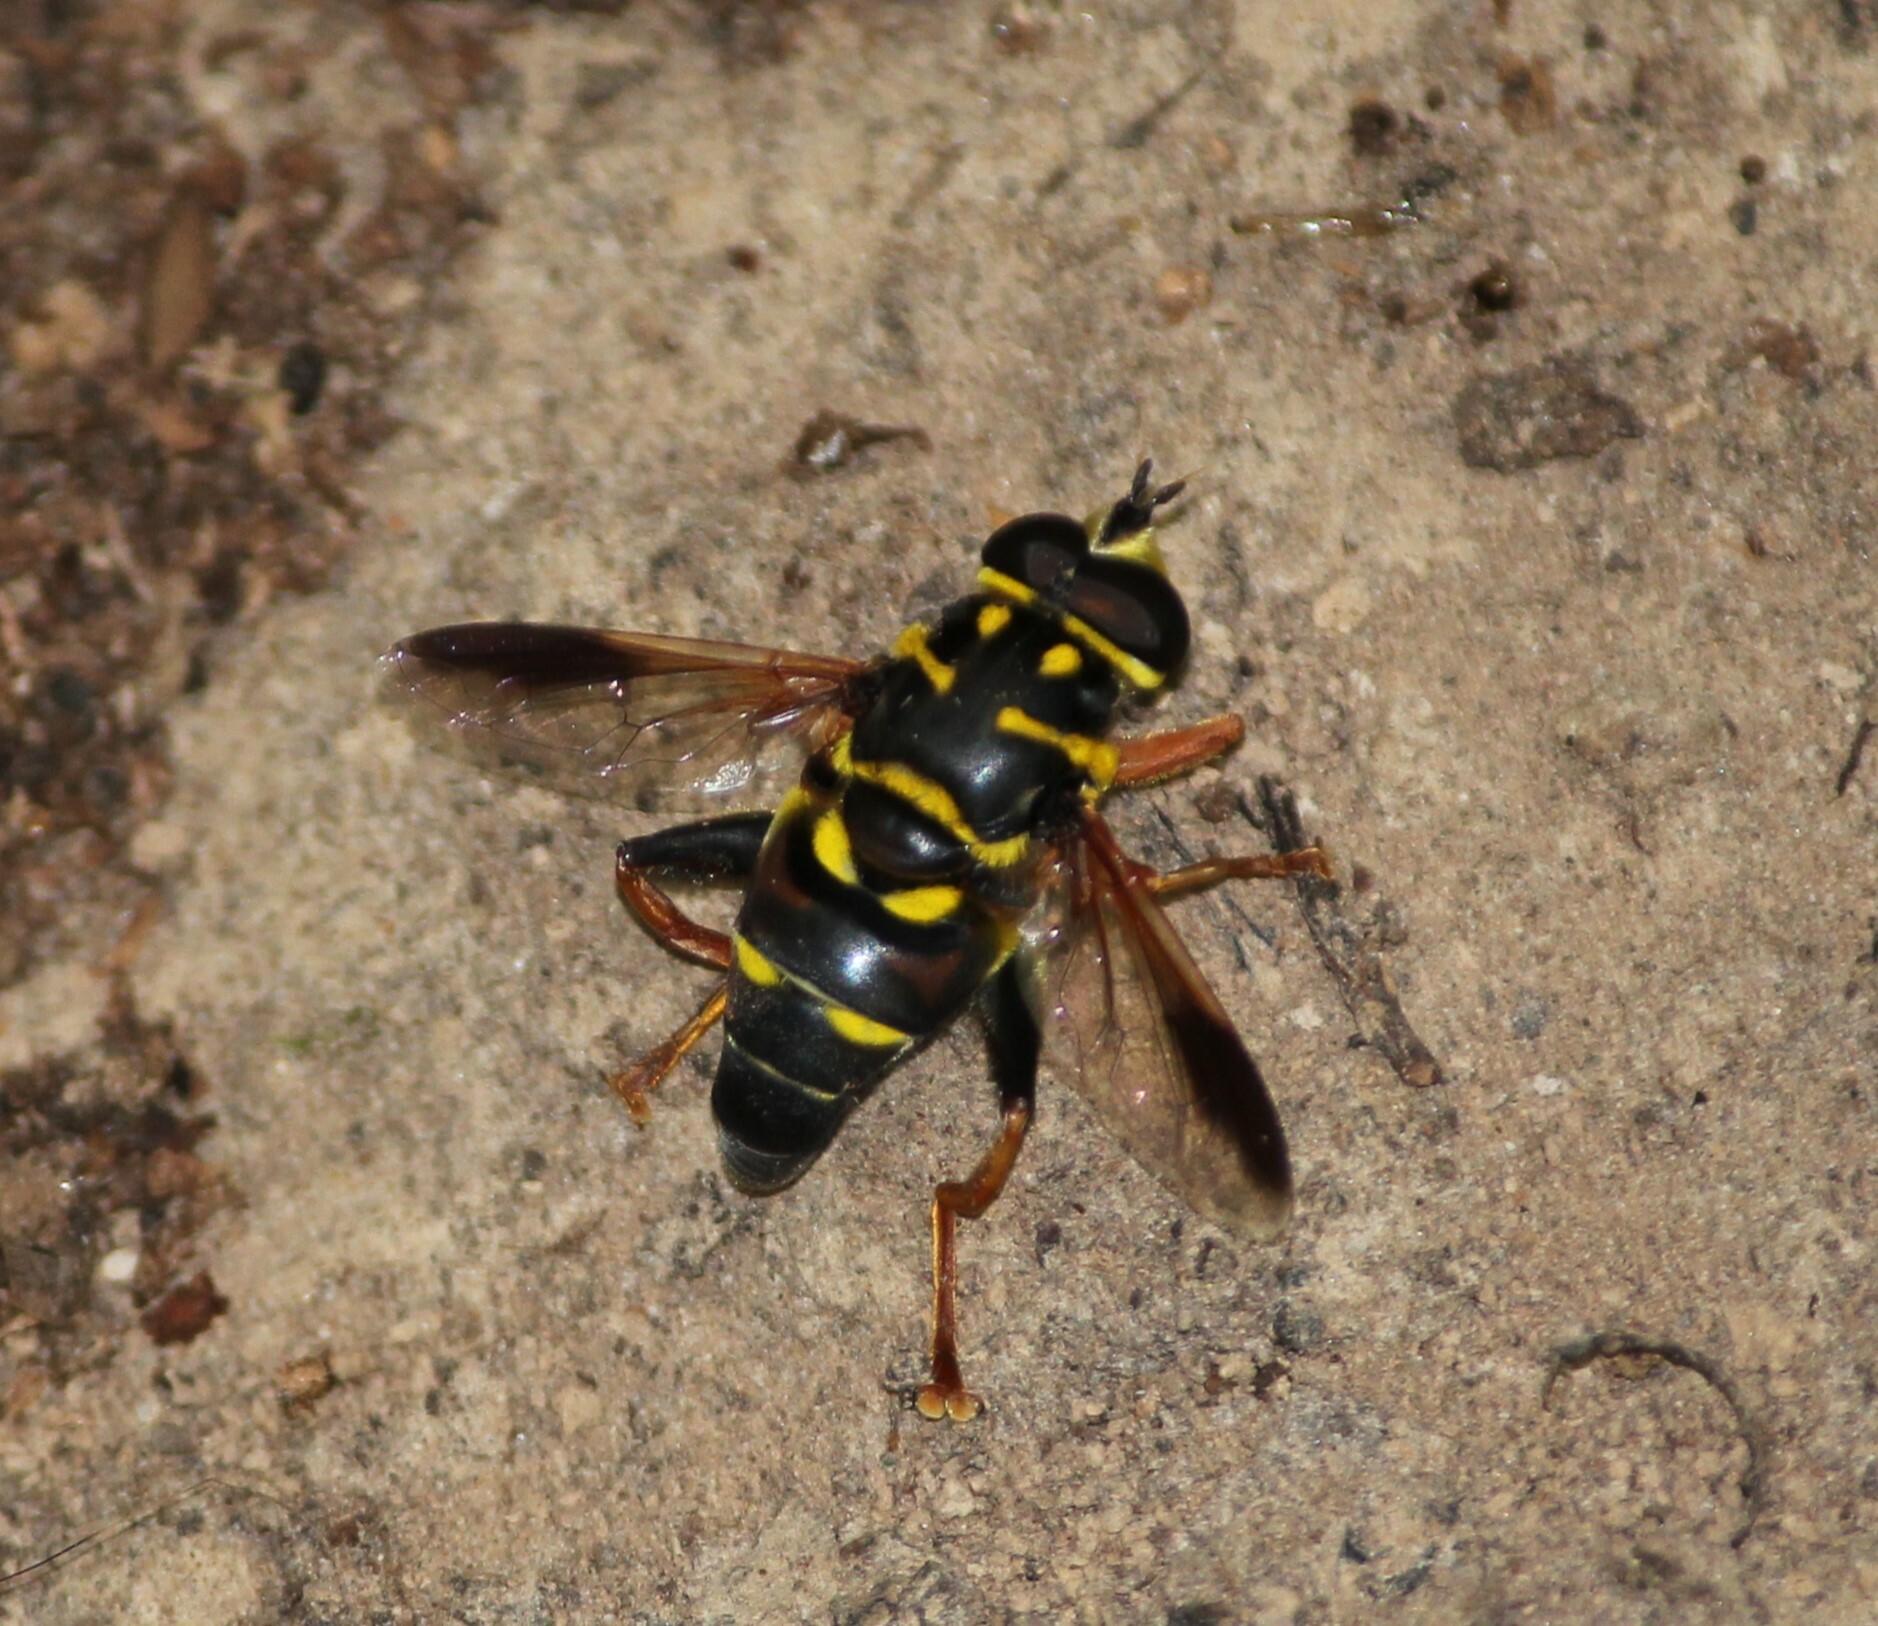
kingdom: Animalia
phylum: Arthropoda
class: Insecta
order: Diptera
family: Syrphidae
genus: Meromacrus
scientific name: Meromacrus acutus
